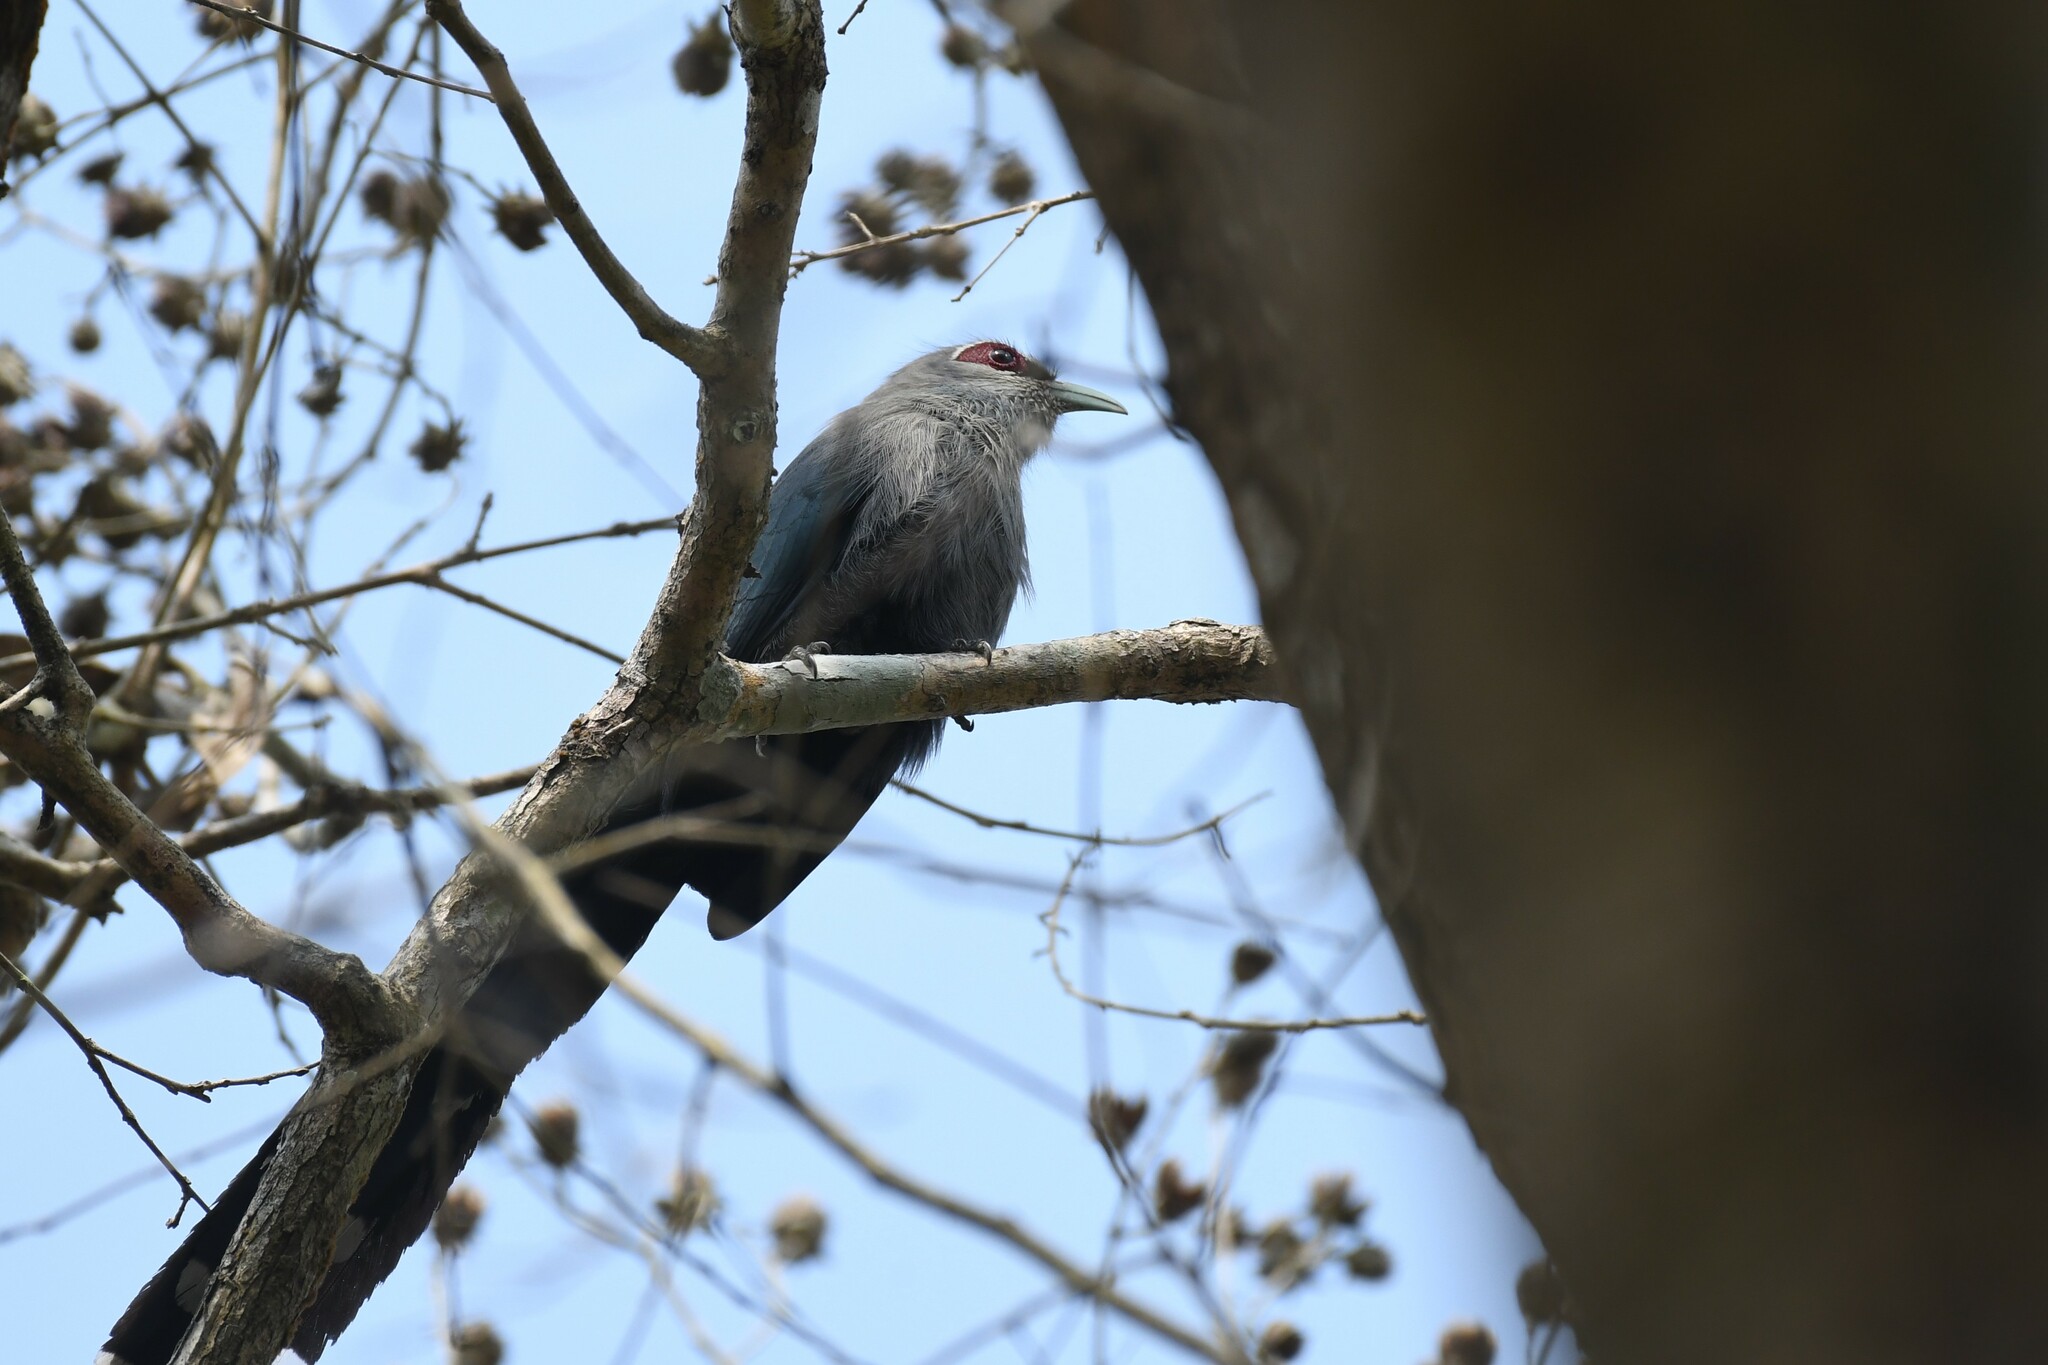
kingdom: Animalia
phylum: Chordata
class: Aves
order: Cuculiformes
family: Cuculidae
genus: Rhopodytes
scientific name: Rhopodytes tristis
